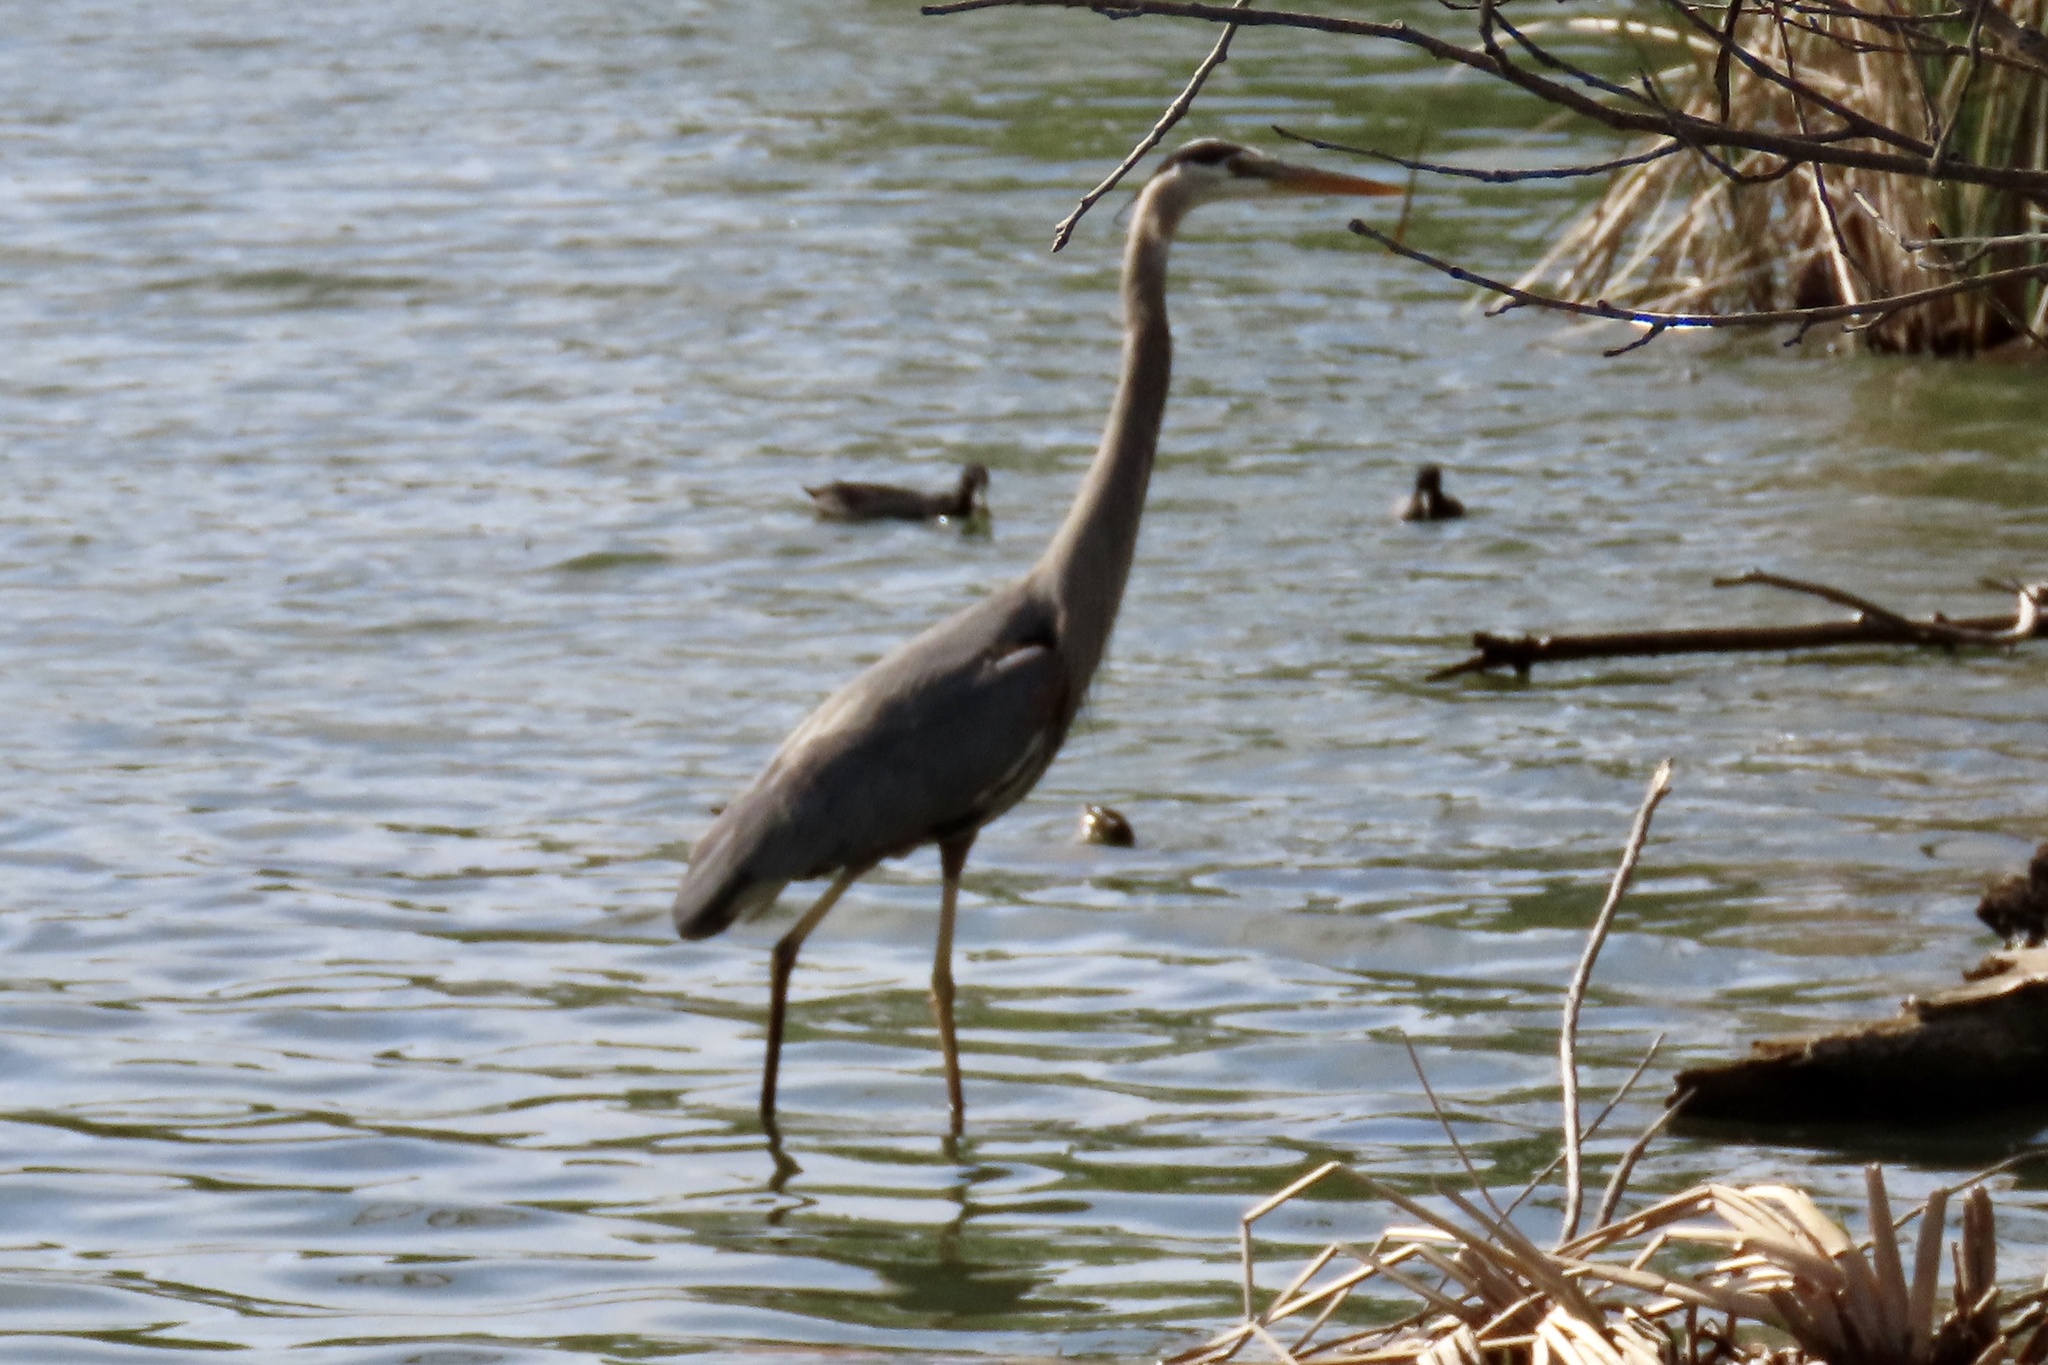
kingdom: Animalia
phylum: Chordata
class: Aves
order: Pelecaniformes
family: Ardeidae
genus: Ardea
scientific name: Ardea herodias
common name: Great blue heron
